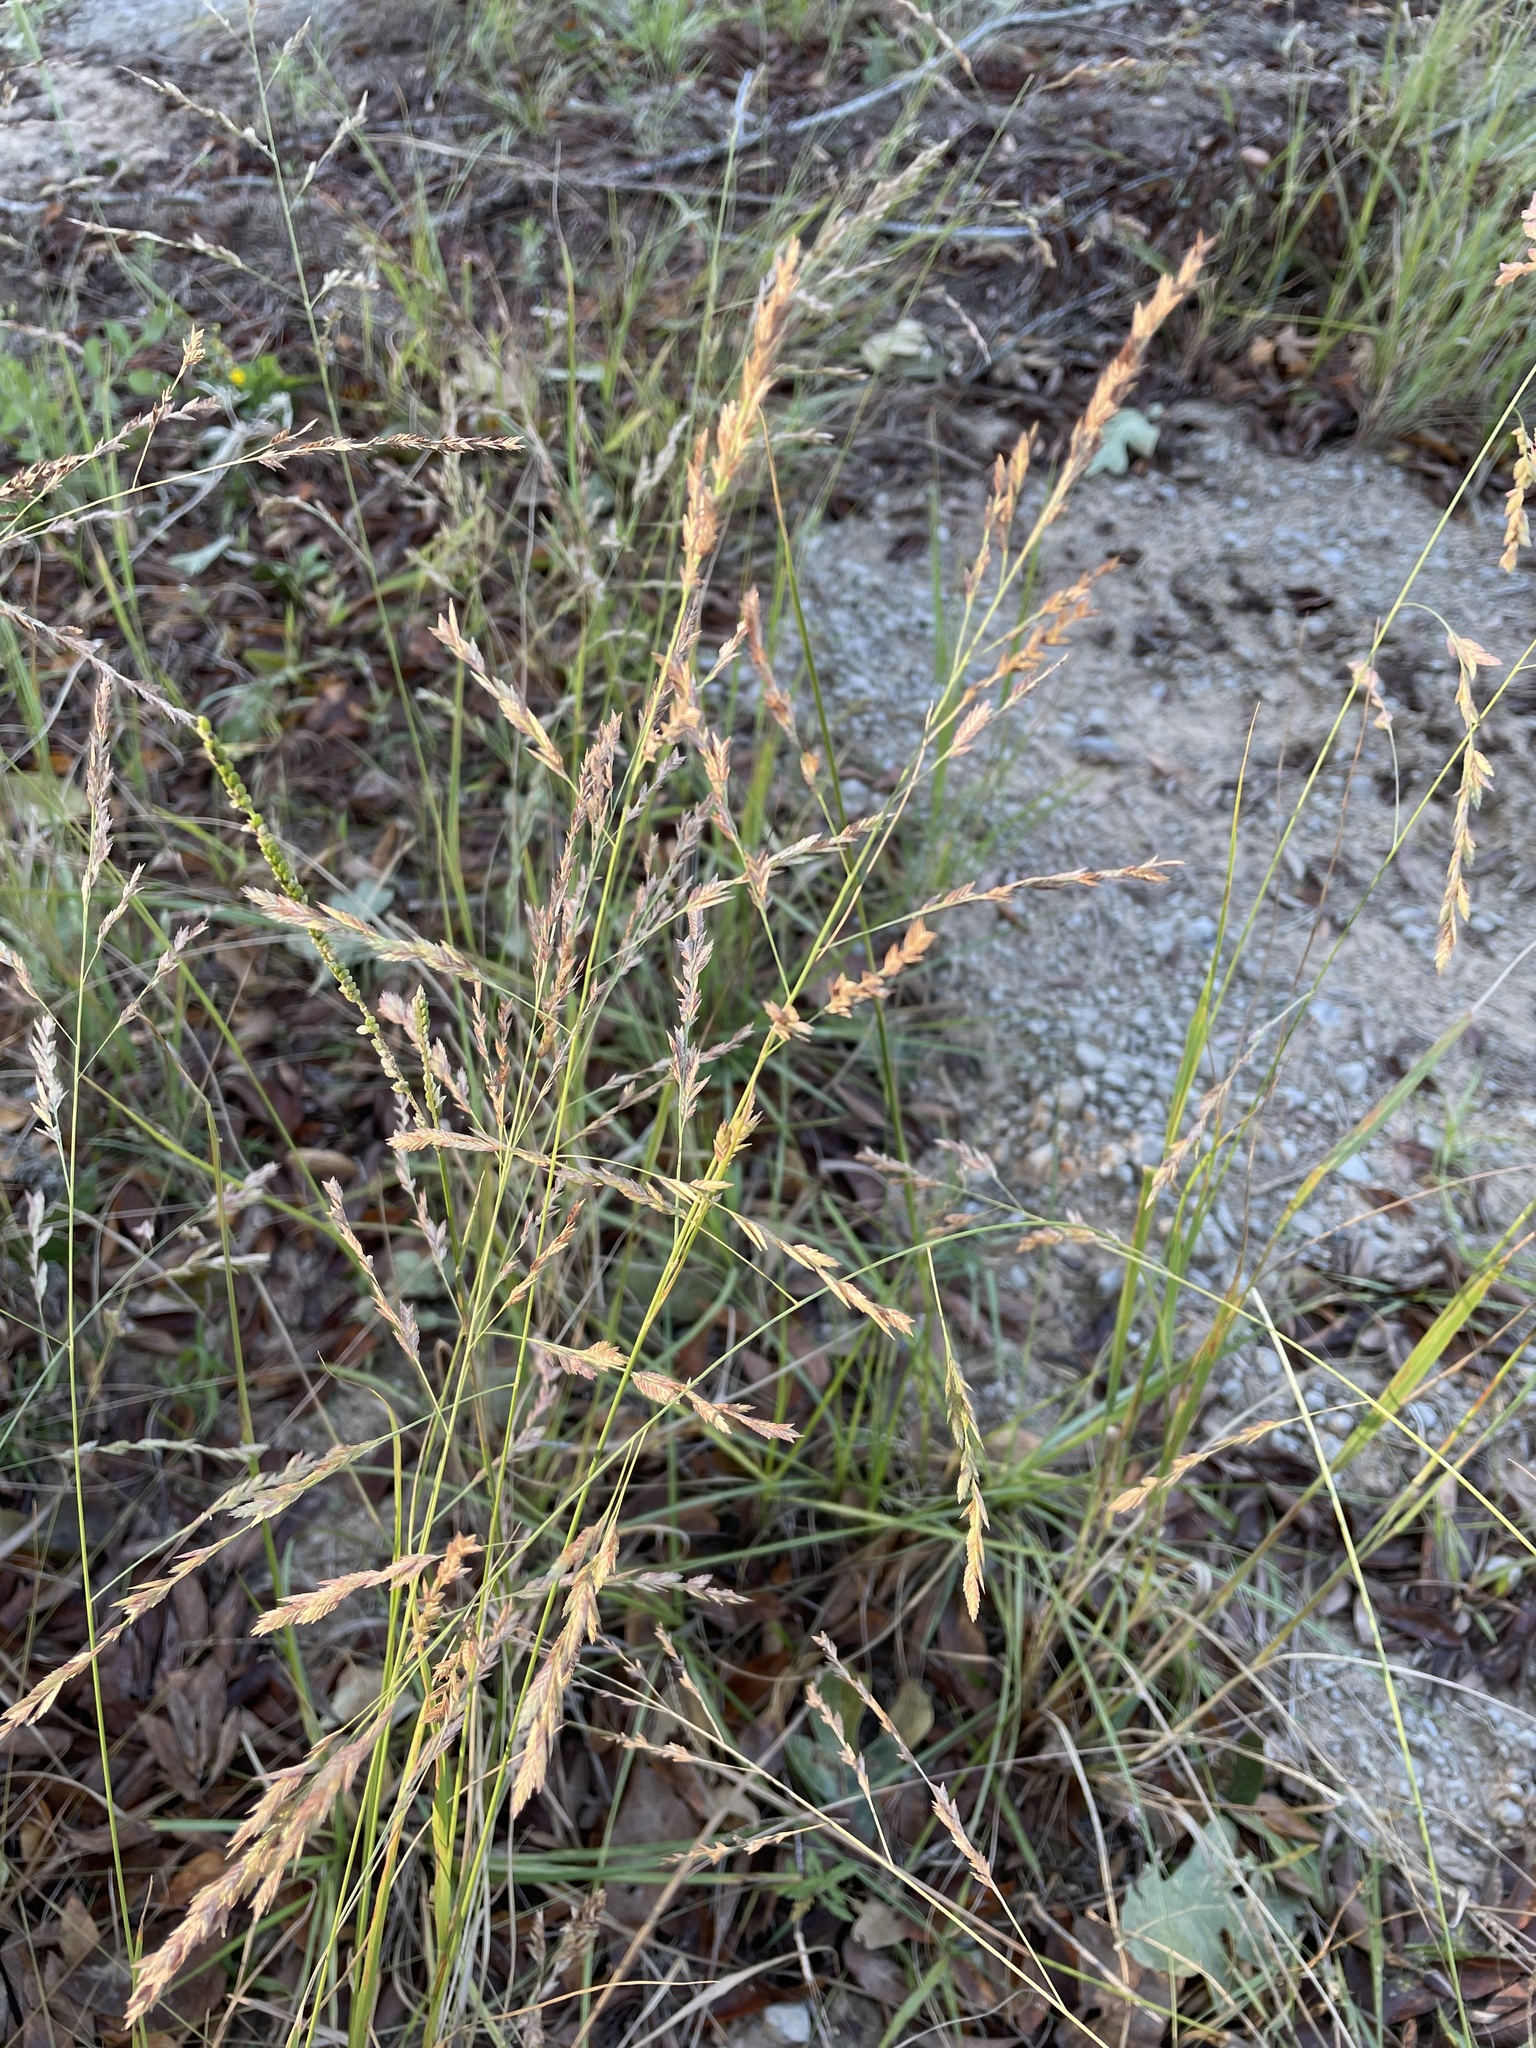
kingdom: Plantae
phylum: Tracheophyta
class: Liliopsida
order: Poales
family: Poaceae
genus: Eragrostis
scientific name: Eragrostis secundiflora
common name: Red love grass
